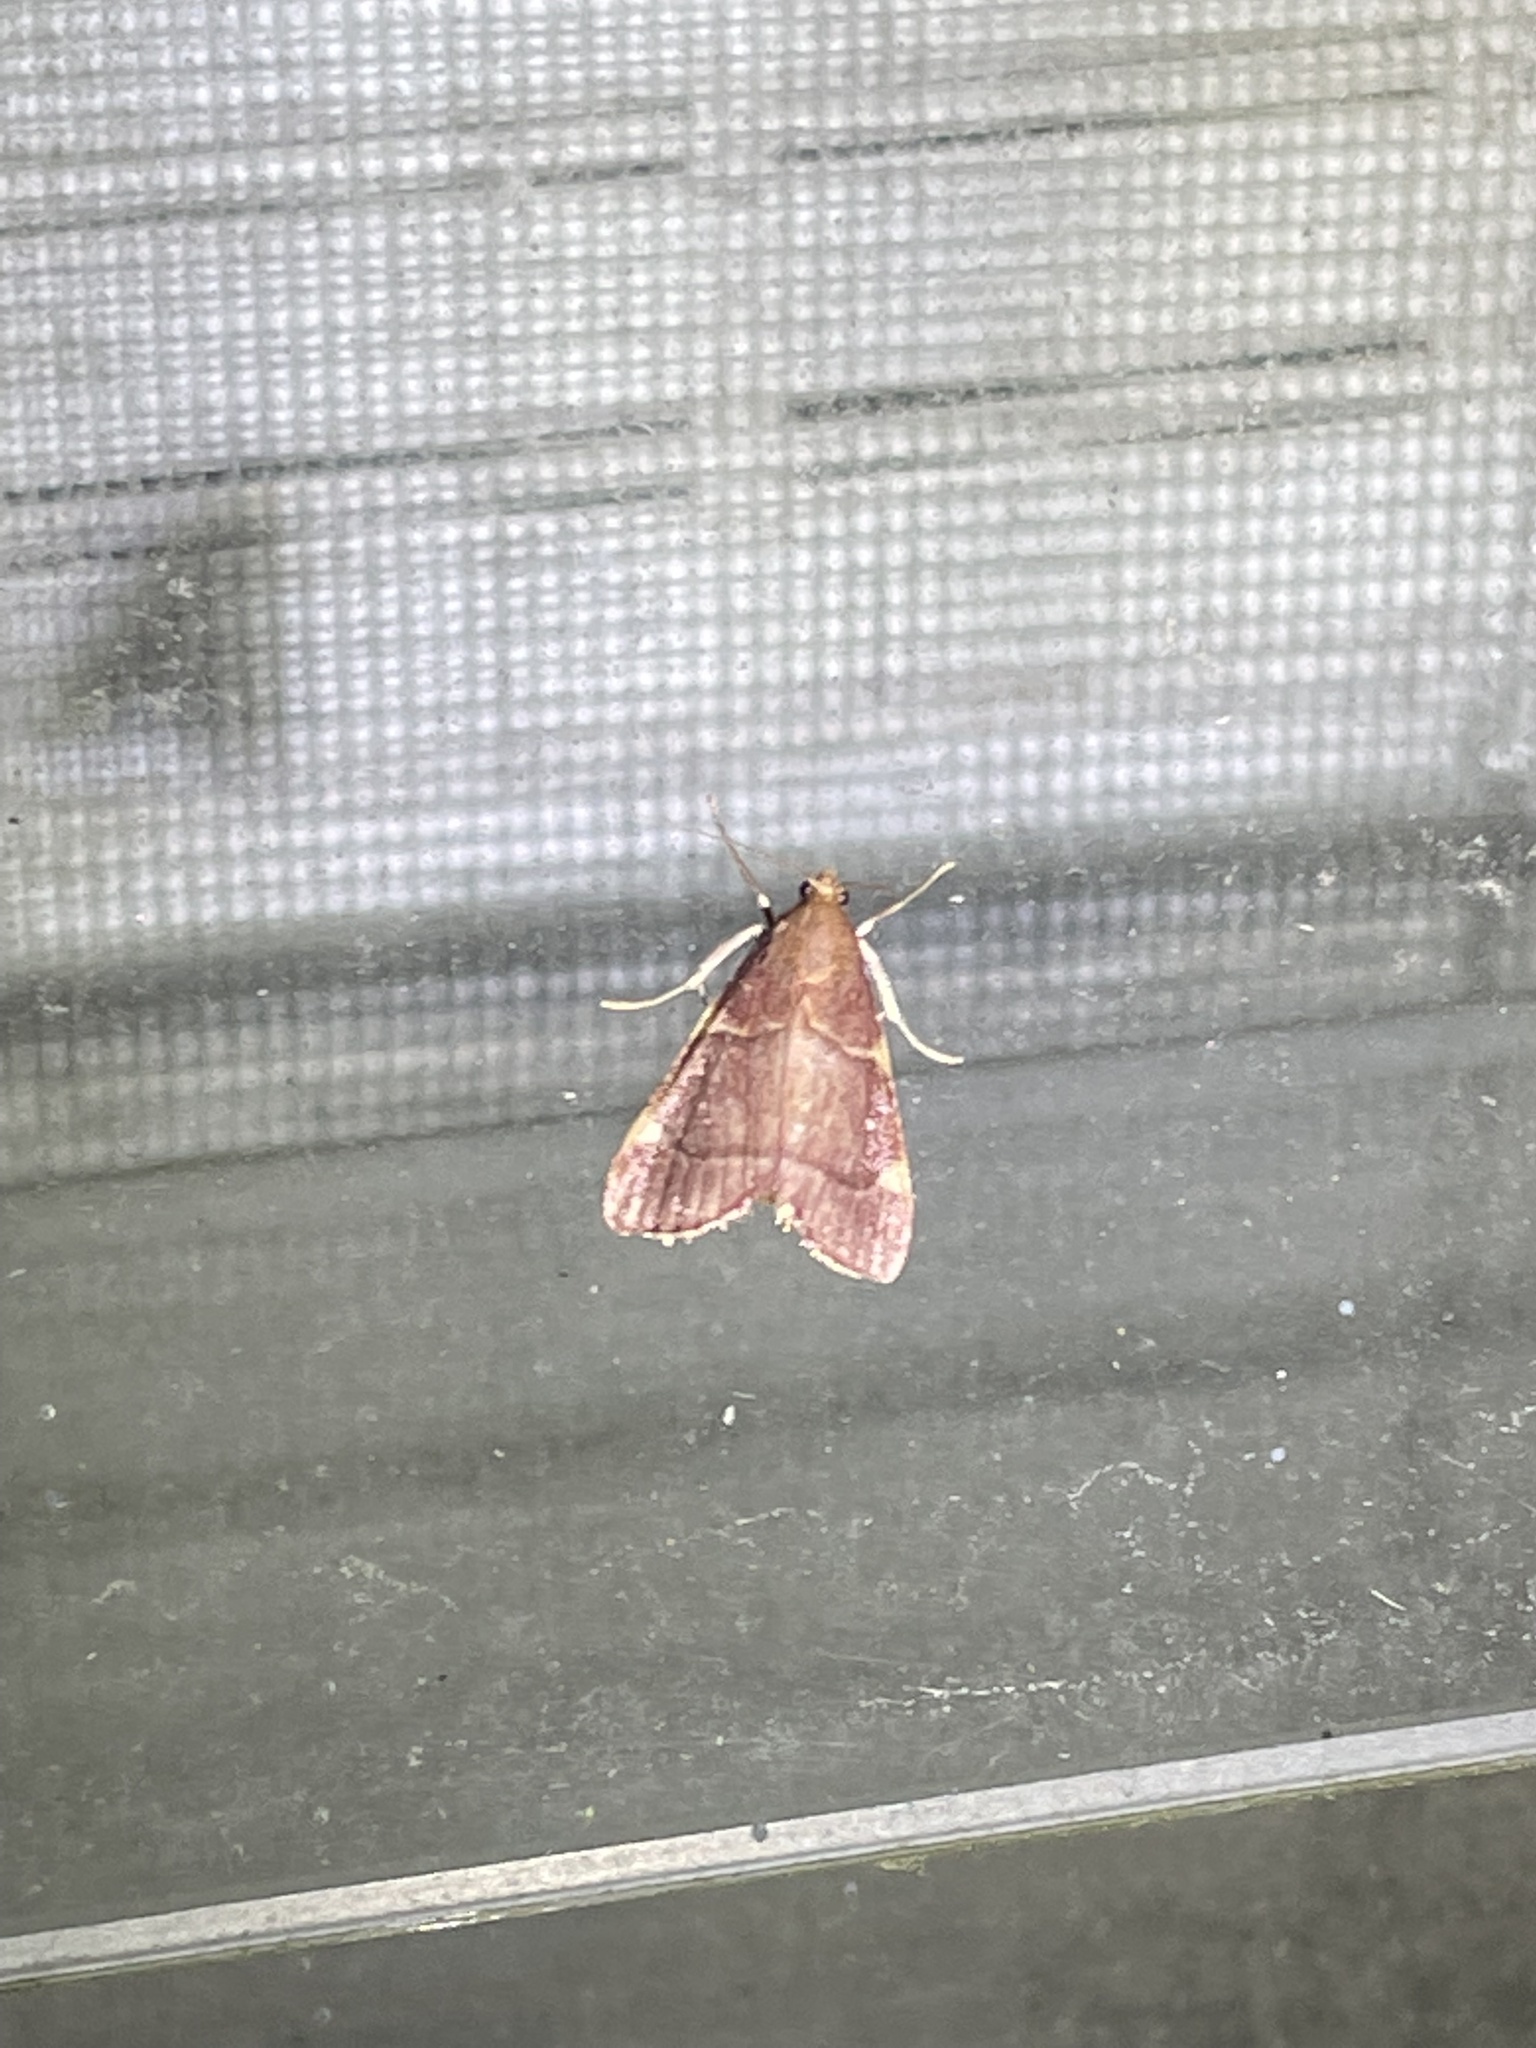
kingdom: Animalia
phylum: Arthropoda
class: Insecta
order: Lepidoptera
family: Pyralidae
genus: Hypsopygia
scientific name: Hypsopygia olinalis
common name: Yellow-fringed dolichomia moth
